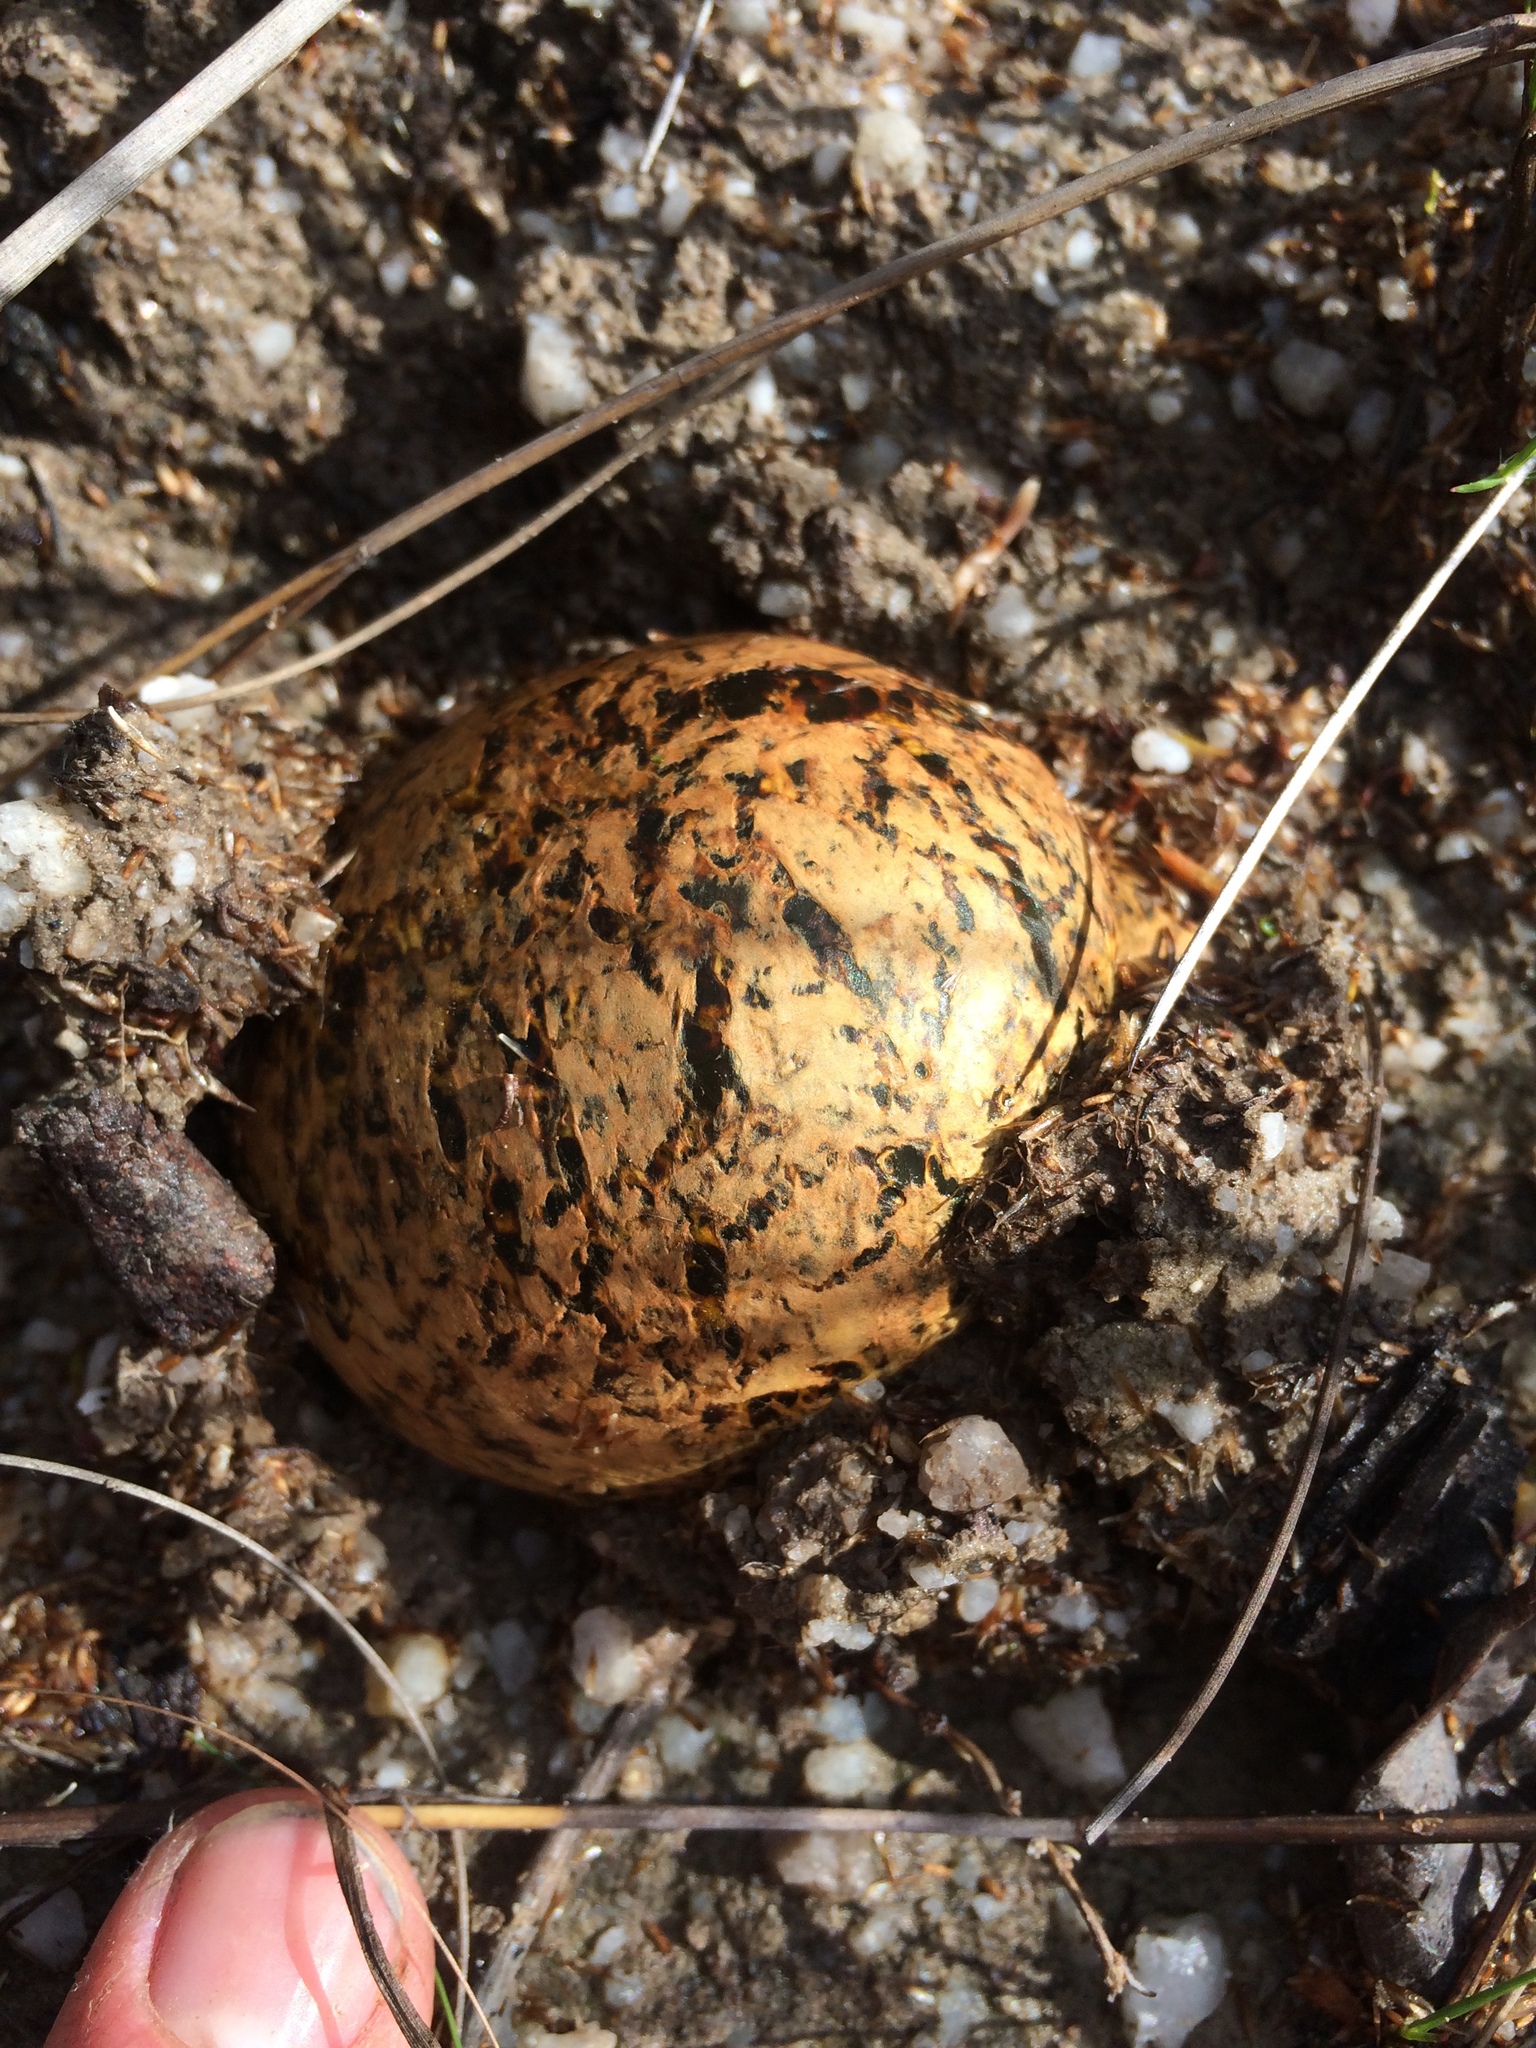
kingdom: Fungi
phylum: Basidiomycota
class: Agaricomycetes
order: Boletales
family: Sclerodermataceae
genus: Pisolithus
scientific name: Pisolithus arhizus
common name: Dyeball
